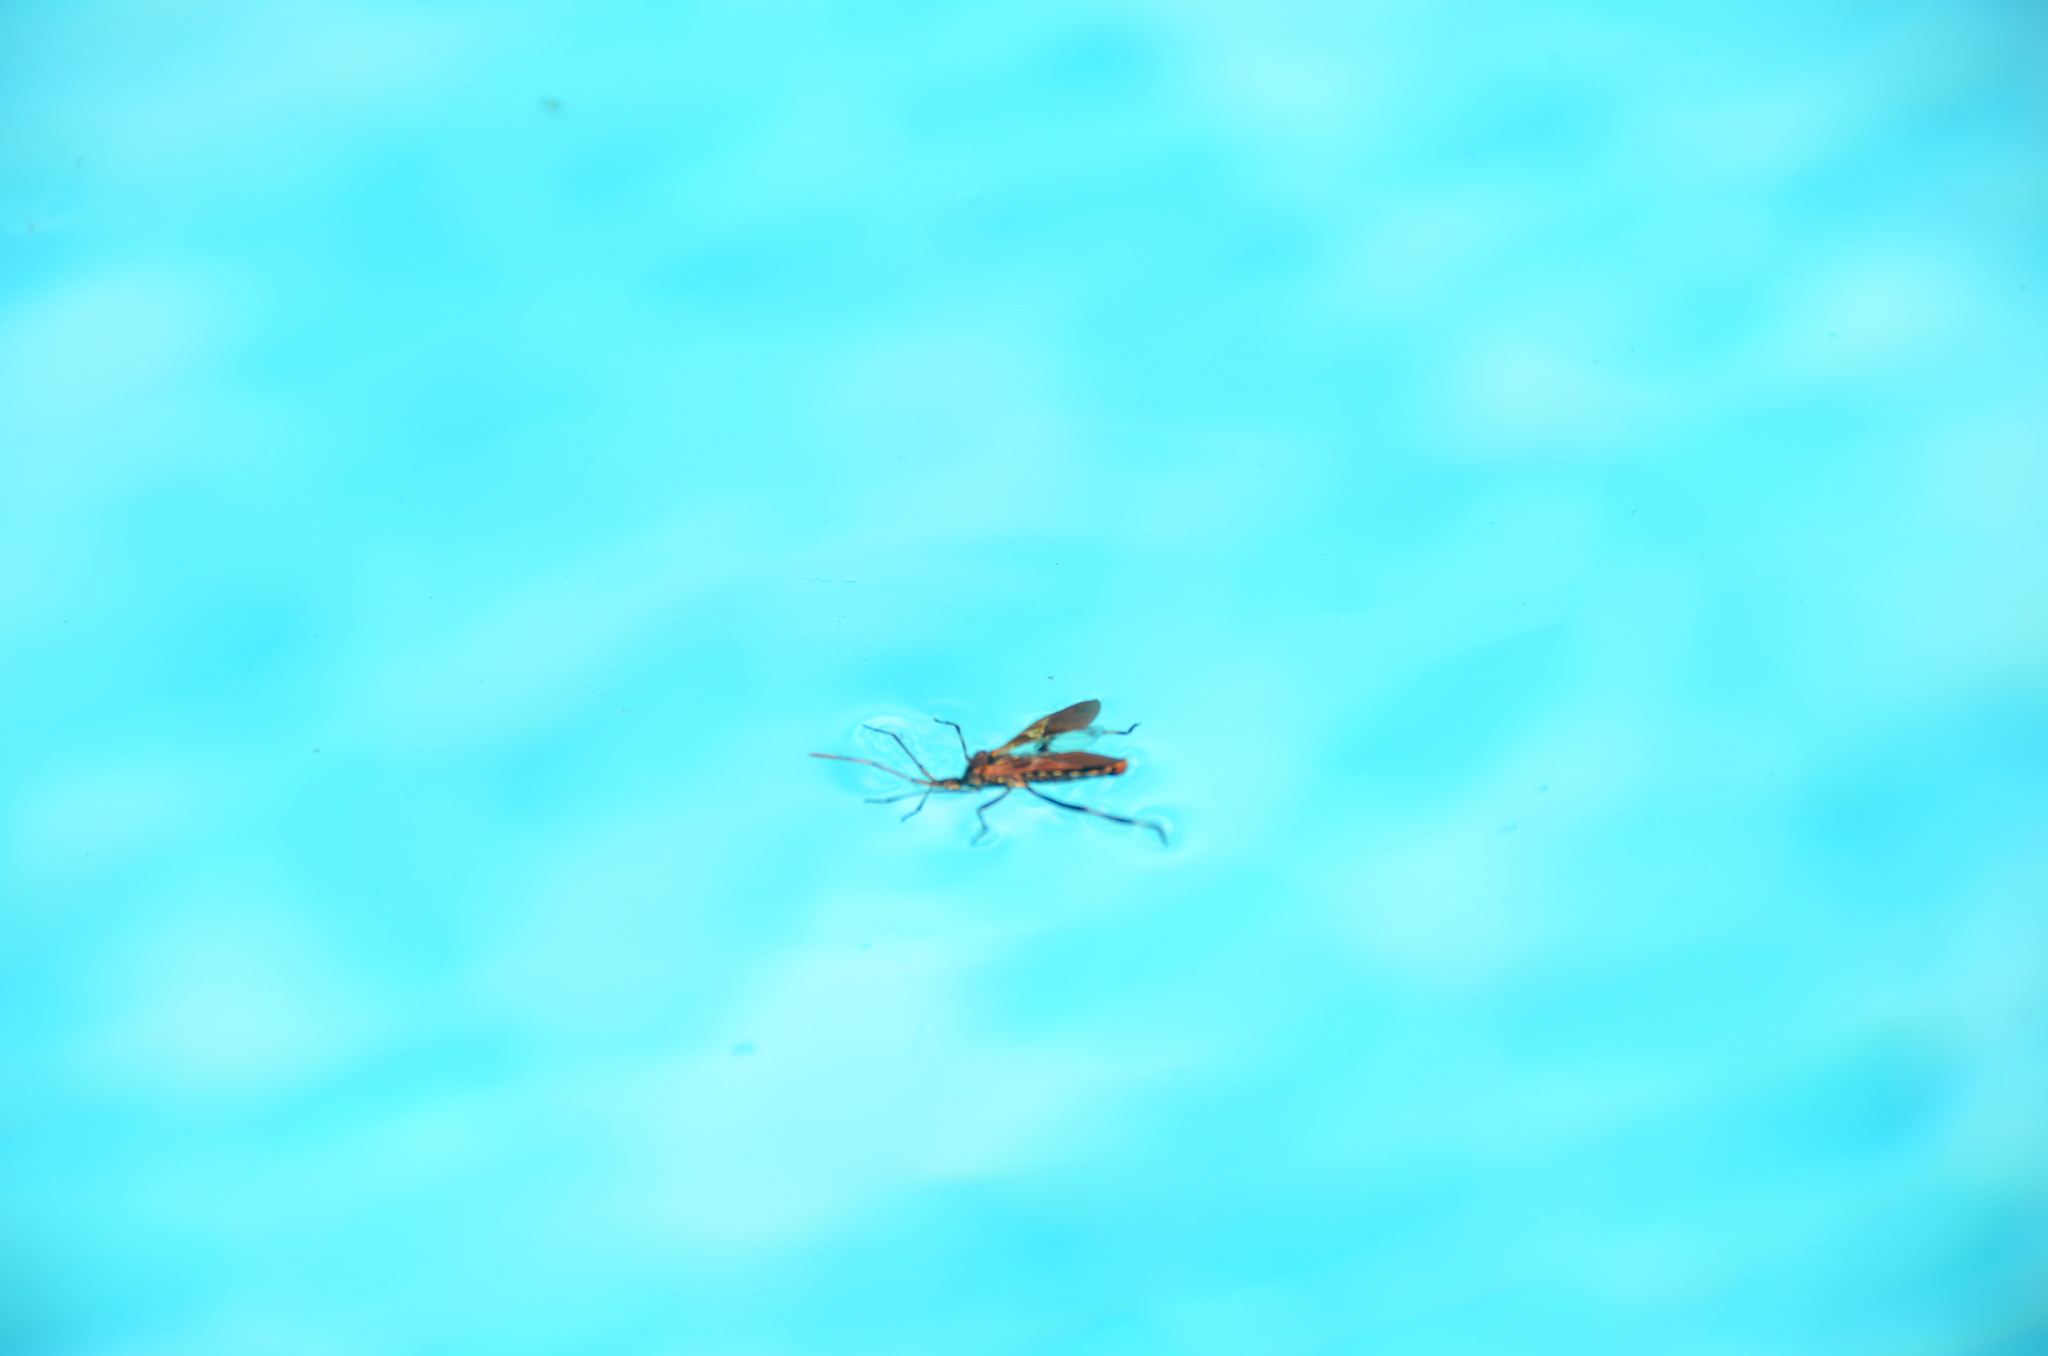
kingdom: Animalia
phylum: Arthropoda
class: Insecta
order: Hemiptera
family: Coreidae
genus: Leptoglossus
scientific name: Leptoglossus occidentalis
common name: Western conifer-seed bug
